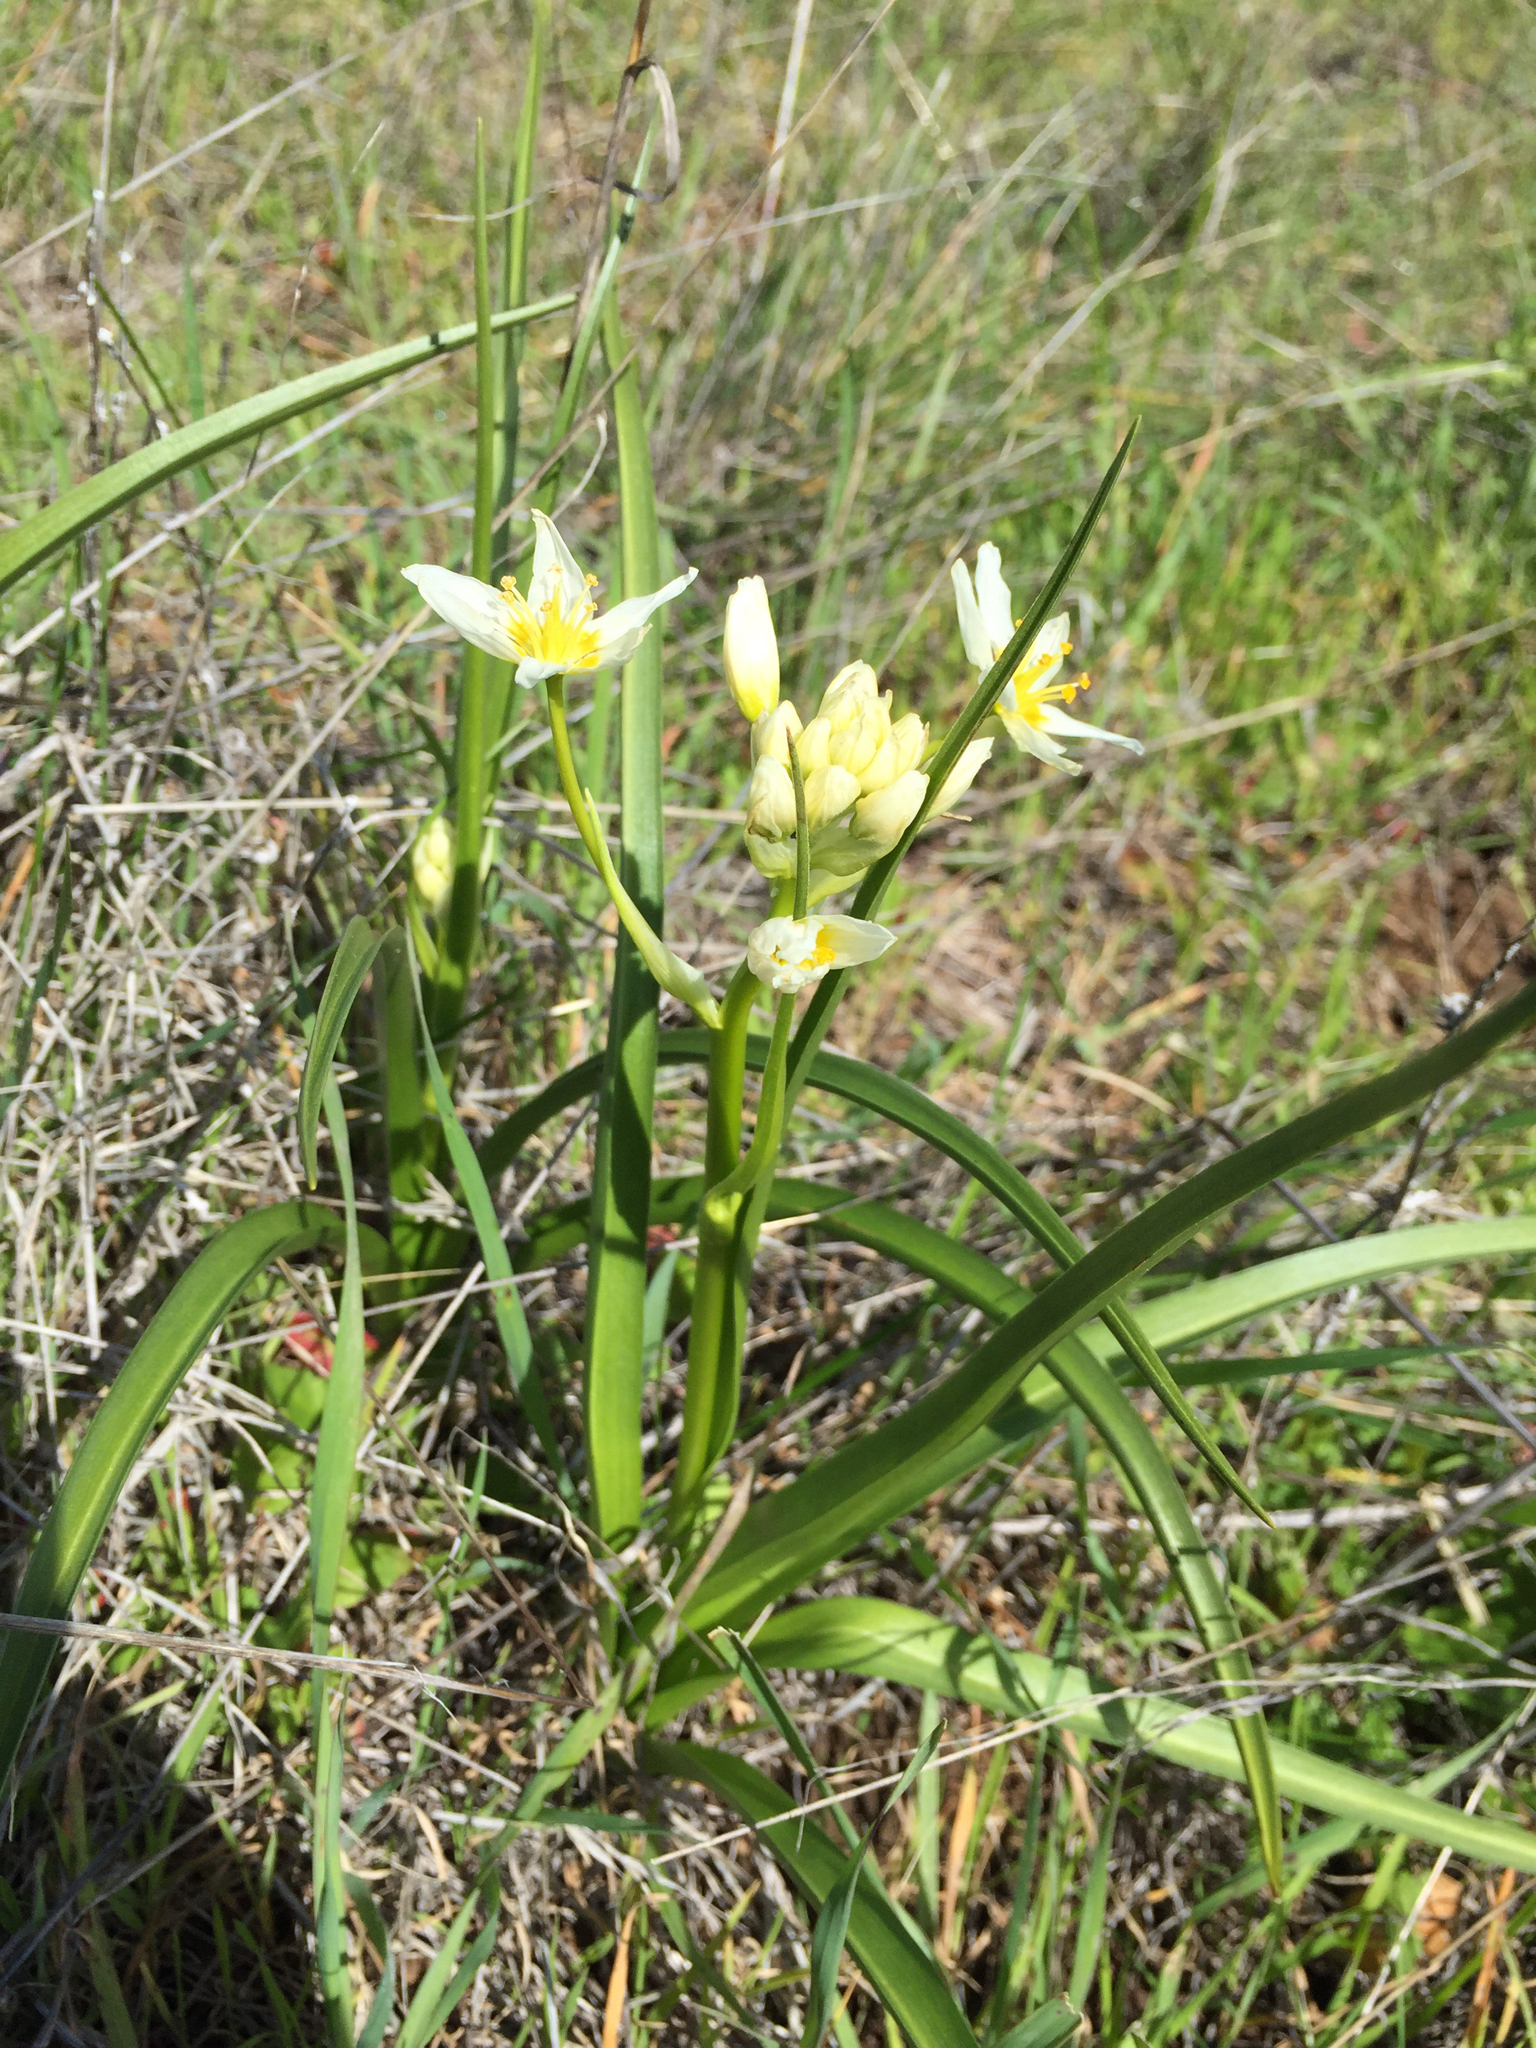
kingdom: Plantae
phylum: Tracheophyta
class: Liliopsida
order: Liliales
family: Melanthiaceae
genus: Toxicoscordion
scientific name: Toxicoscordion fremontii
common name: Fremont's death camas
